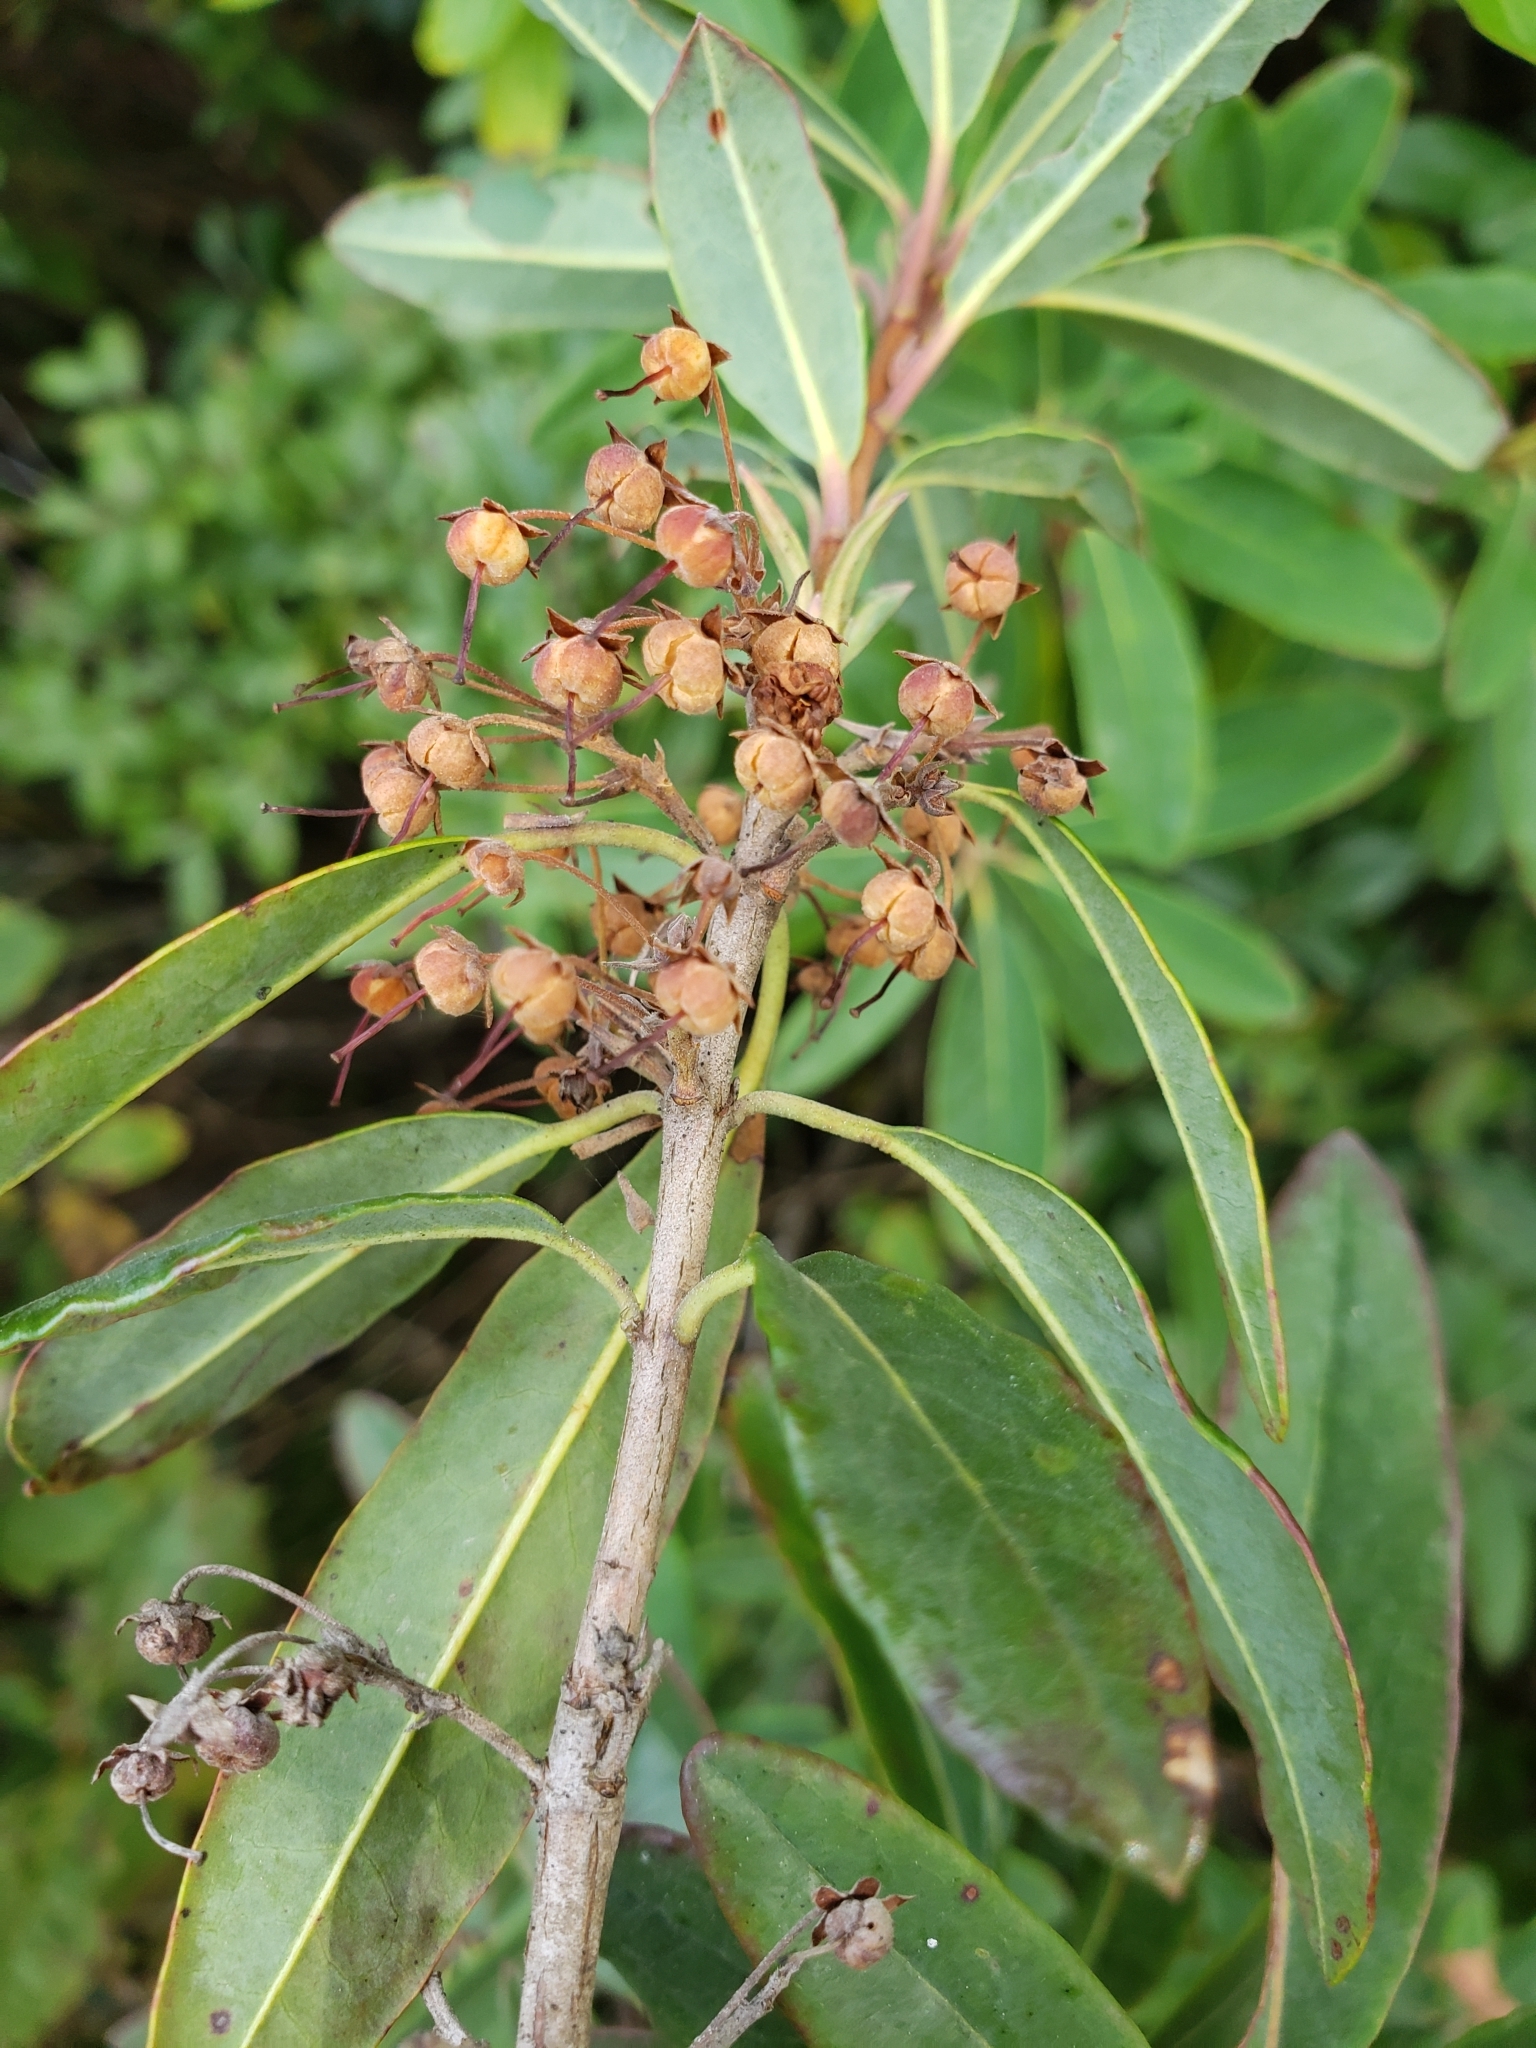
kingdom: Plantae
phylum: Tracheophyta
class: Magnoliopsida
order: Ericales
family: Ericaceae
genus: Kalmia
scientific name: Kalmia angustifolia
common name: Sheep-laurel
